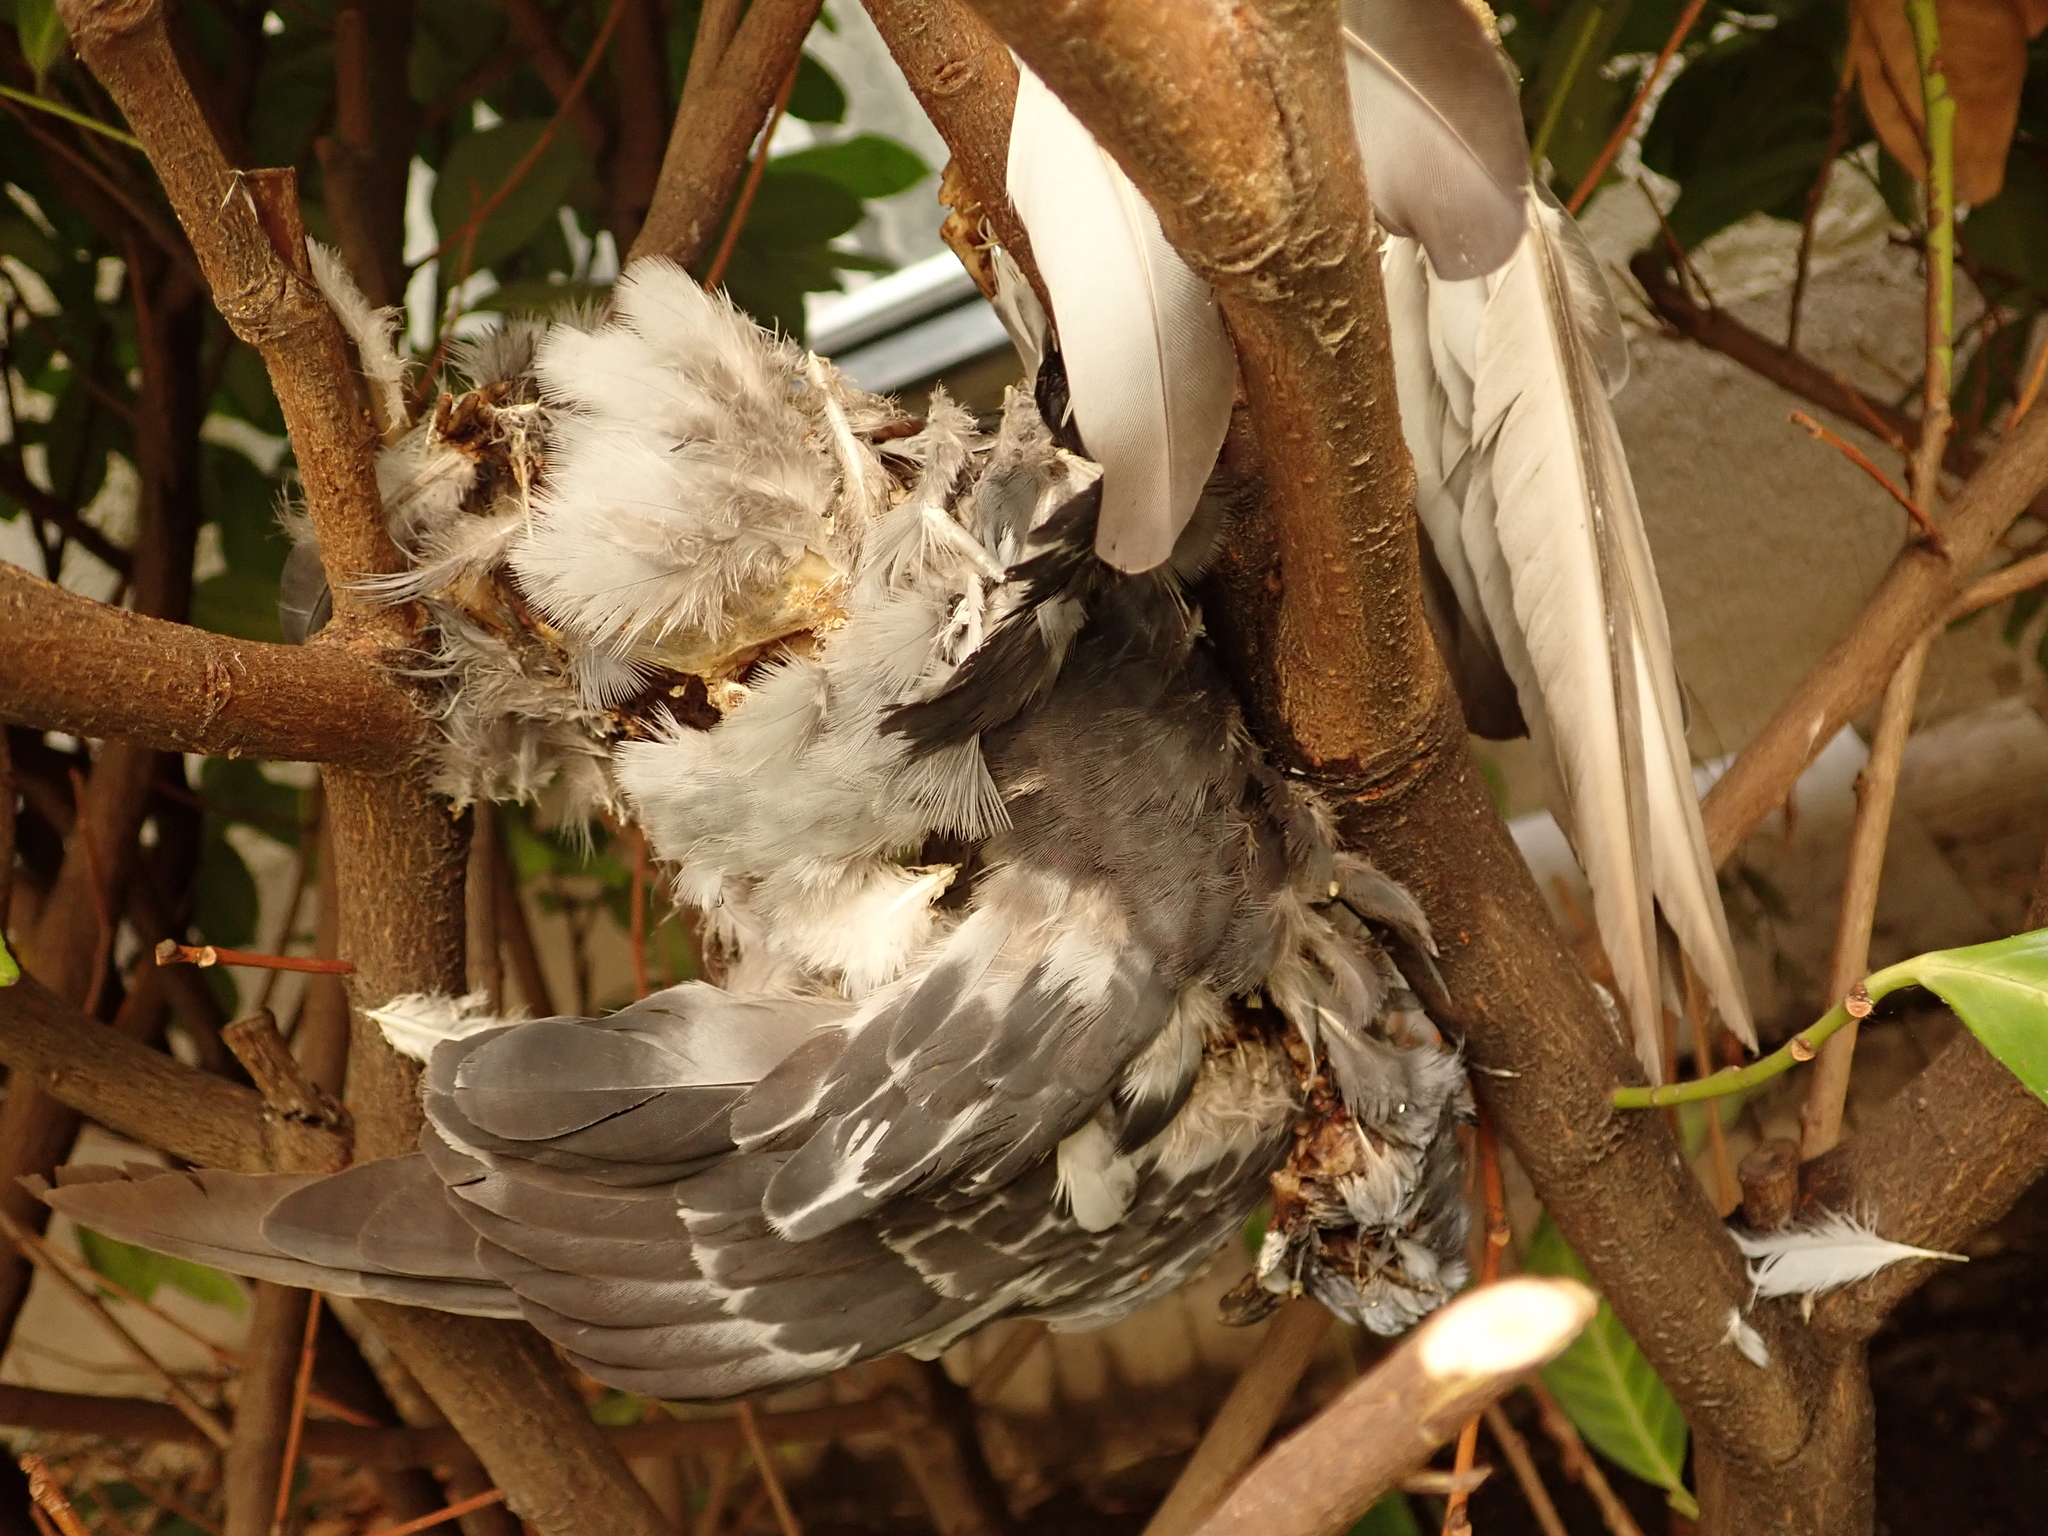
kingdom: Animalia
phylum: Chordata
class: Aves
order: Columbiformes
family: Columbidae
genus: Columba
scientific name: Columba livia
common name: Rock pigeon
